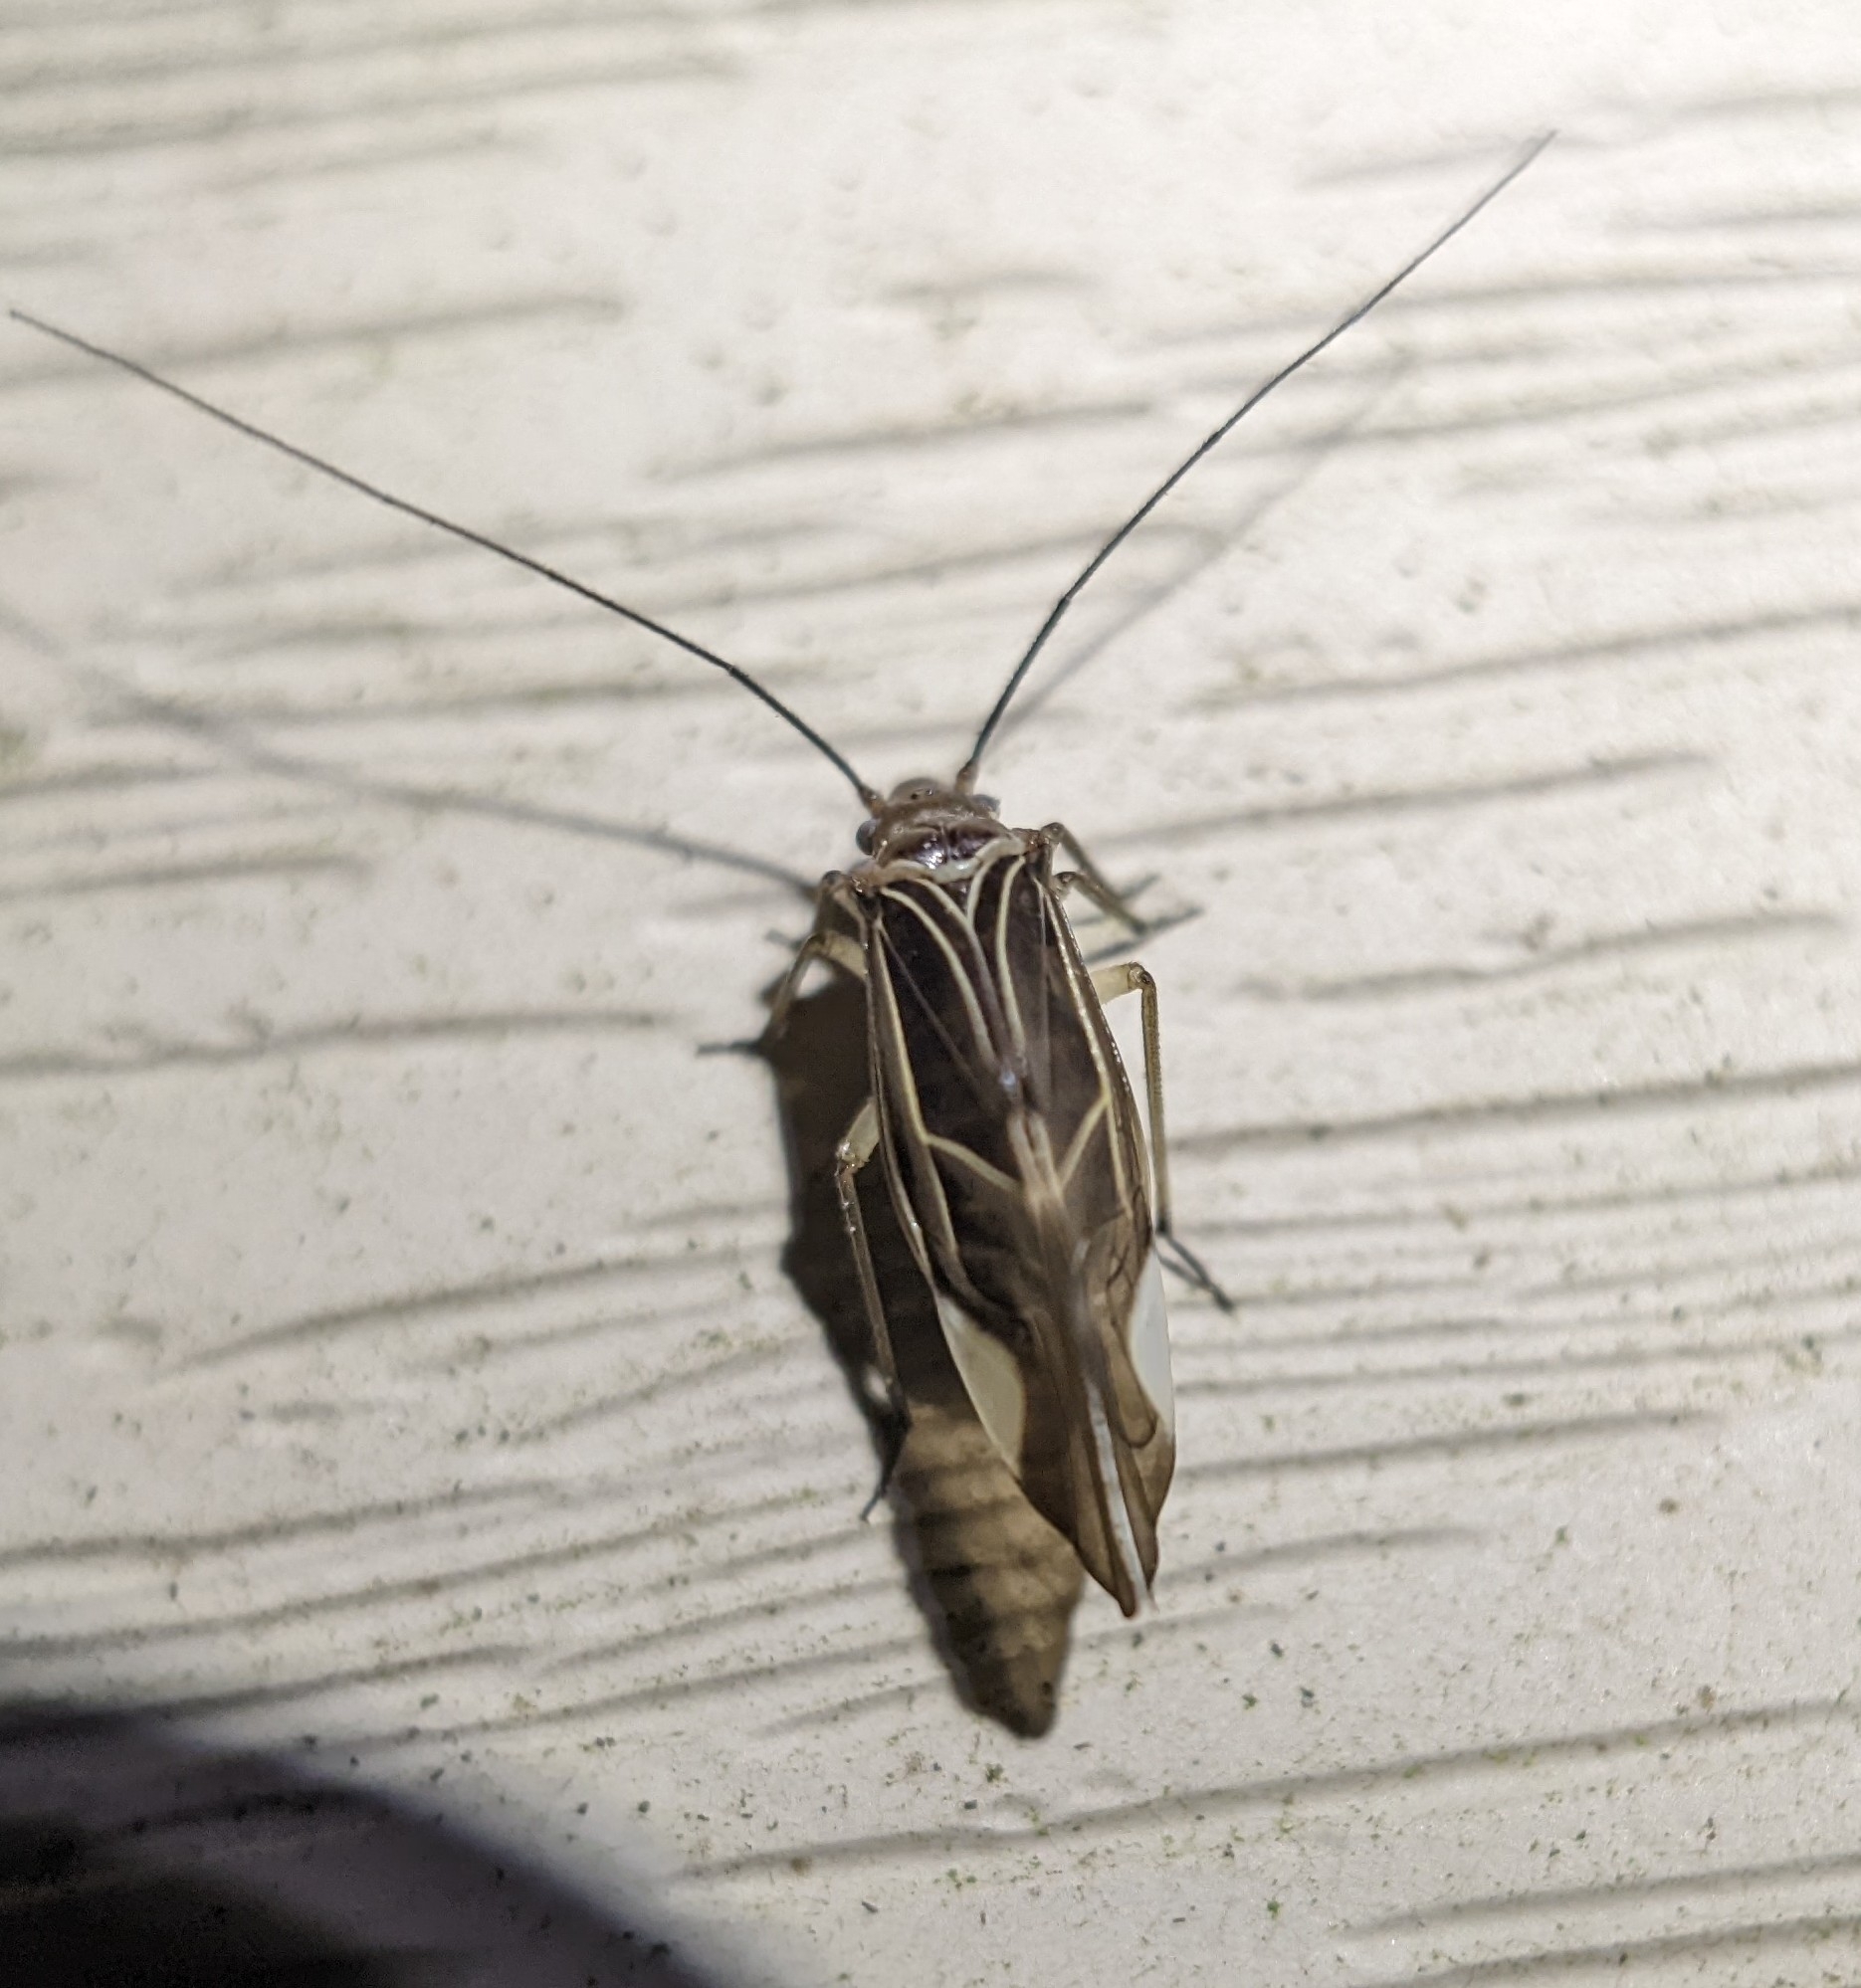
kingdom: Animalia
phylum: Arthropoda
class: Insecta
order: Psocodea
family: Psocidae
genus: Cerastipsocus
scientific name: Cerastipsocus venosus
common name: Tree cattle
